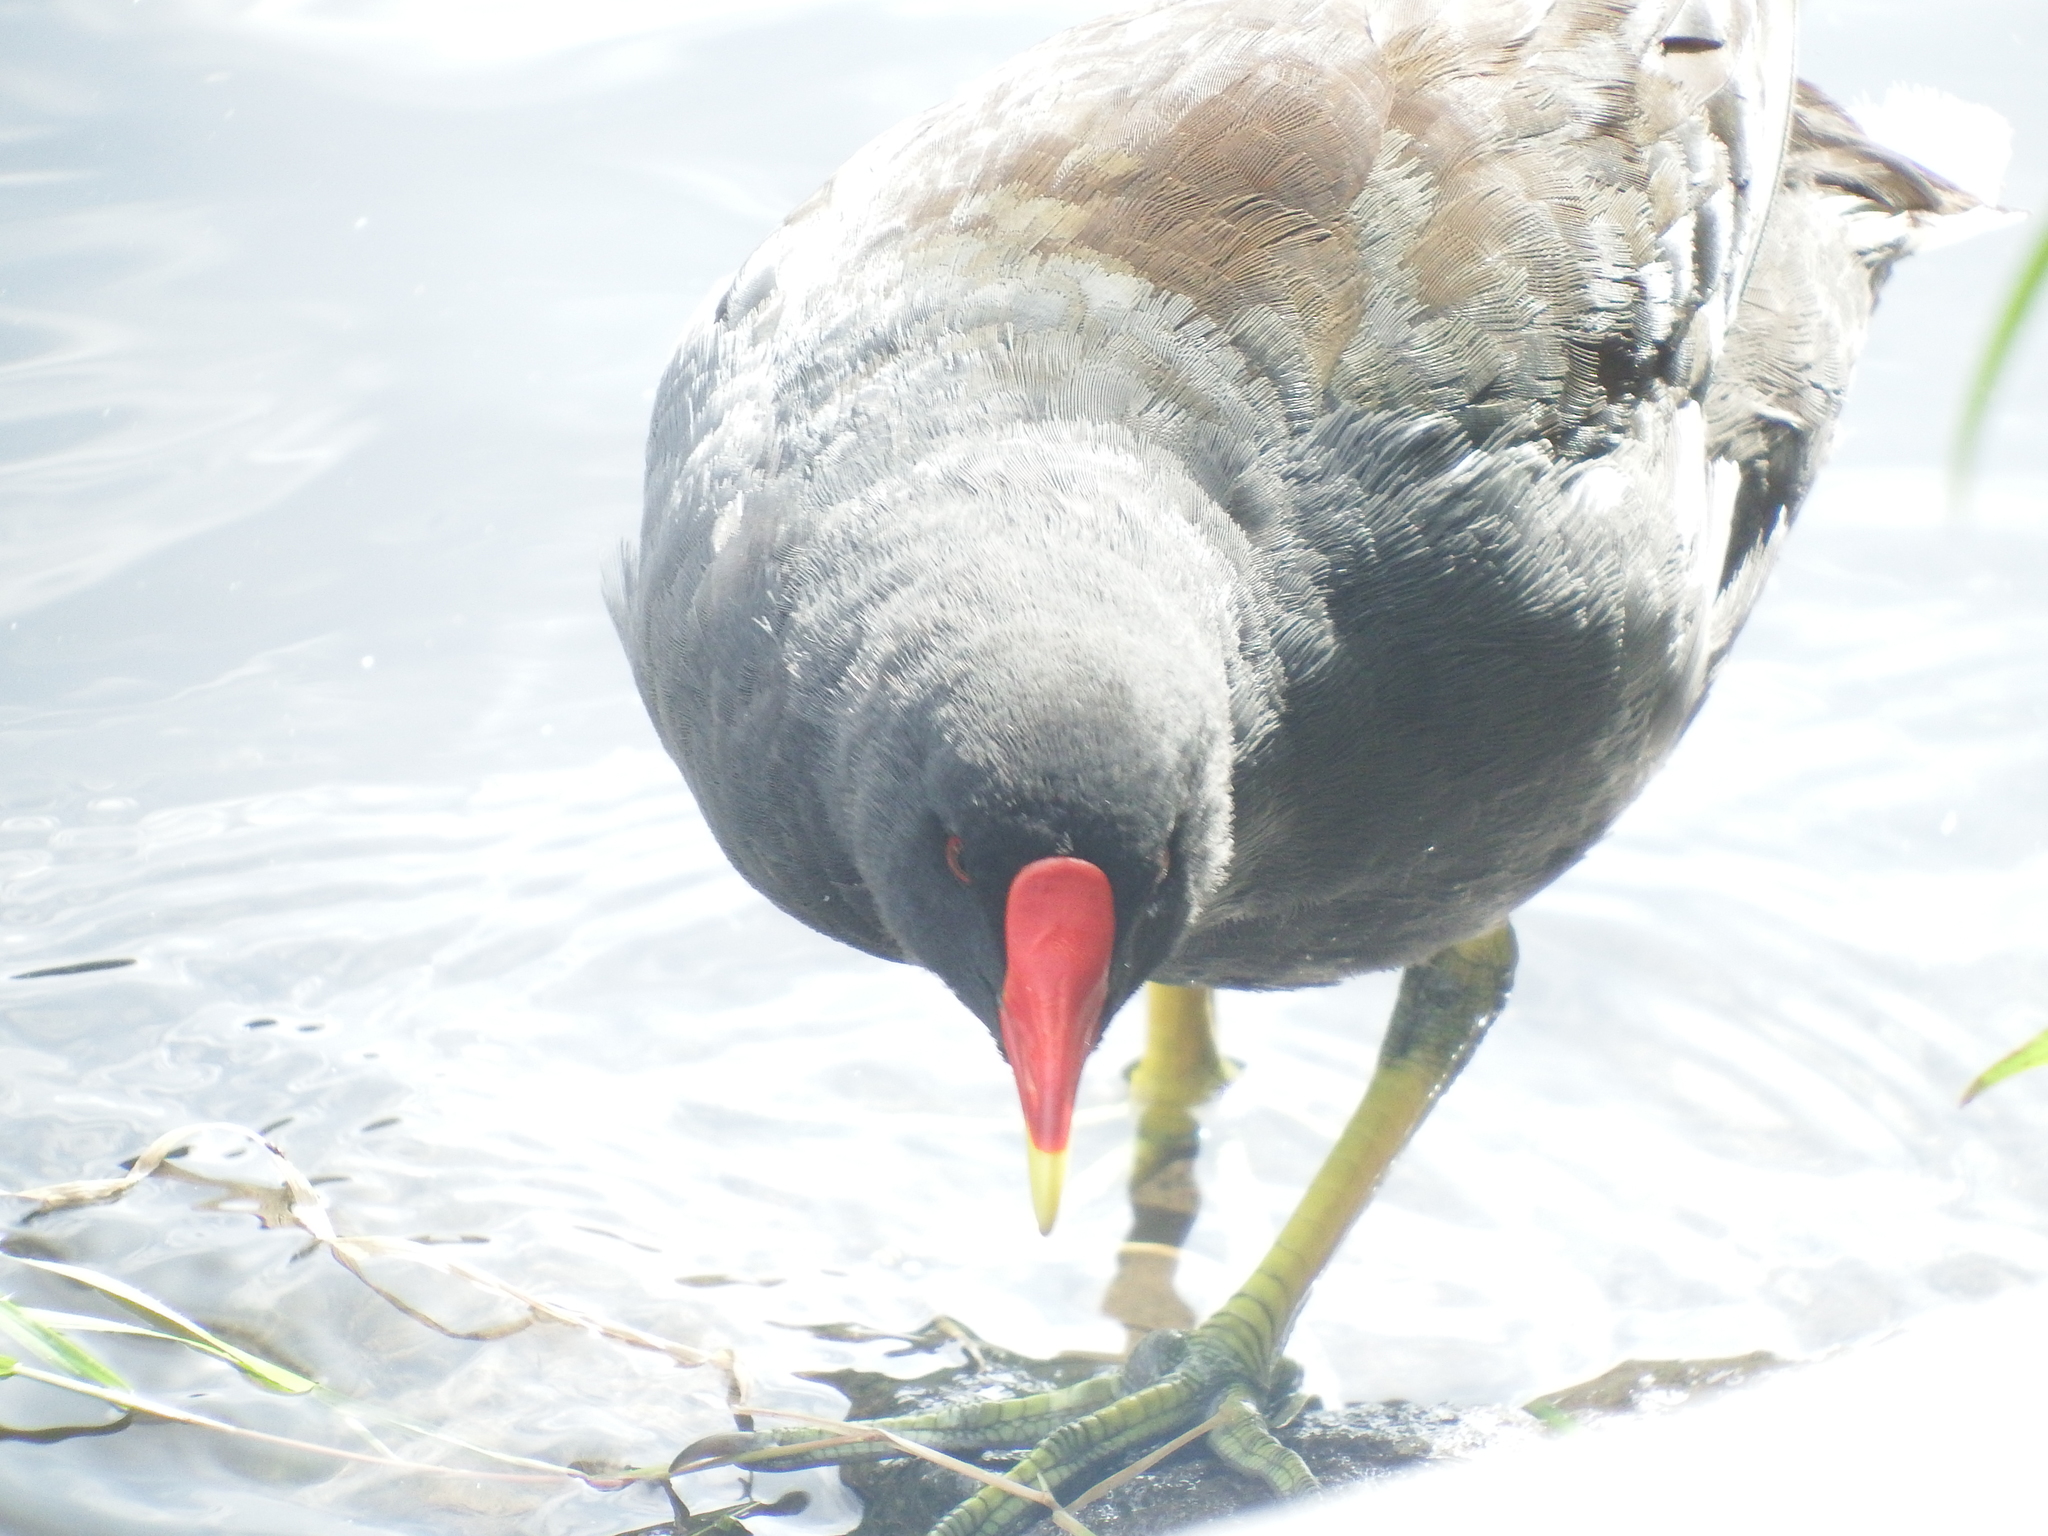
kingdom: Animalia
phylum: Chordata
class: Aves
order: Gruiformes
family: Rallidae
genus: Gallinula
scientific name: Gallinula chloropus
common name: Common moorhen
